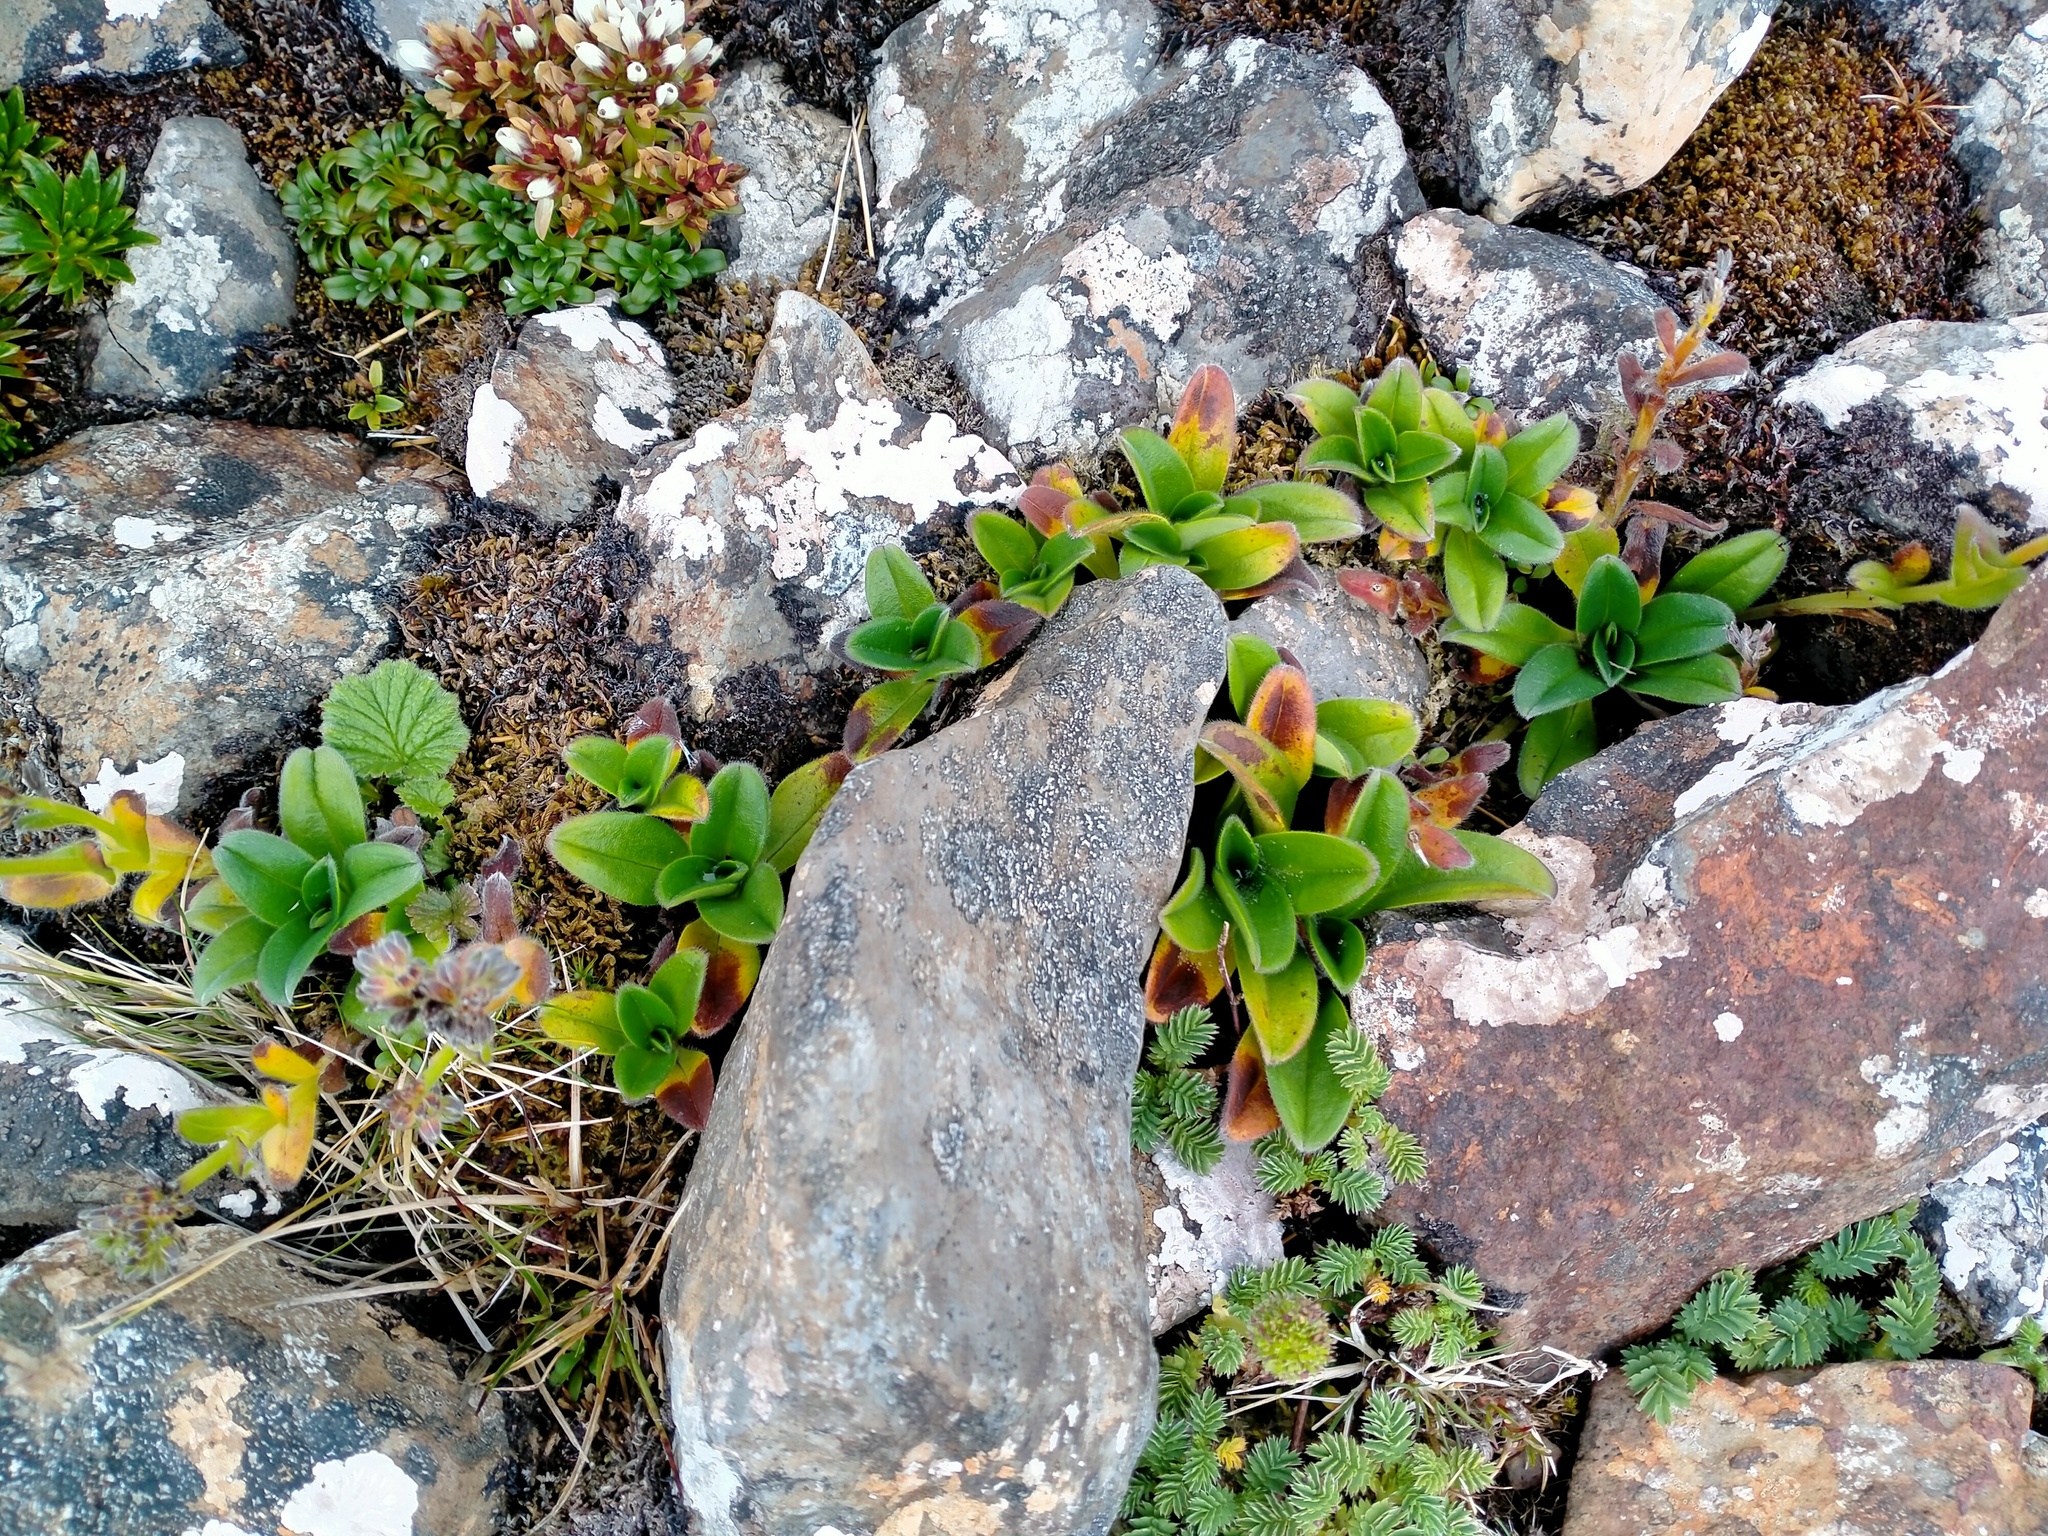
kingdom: Plantae
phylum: Tracheophyta
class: Magnoliopsida
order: Boraginales
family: Boraginaceae
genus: Myosotis
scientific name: Myosotis capitata
